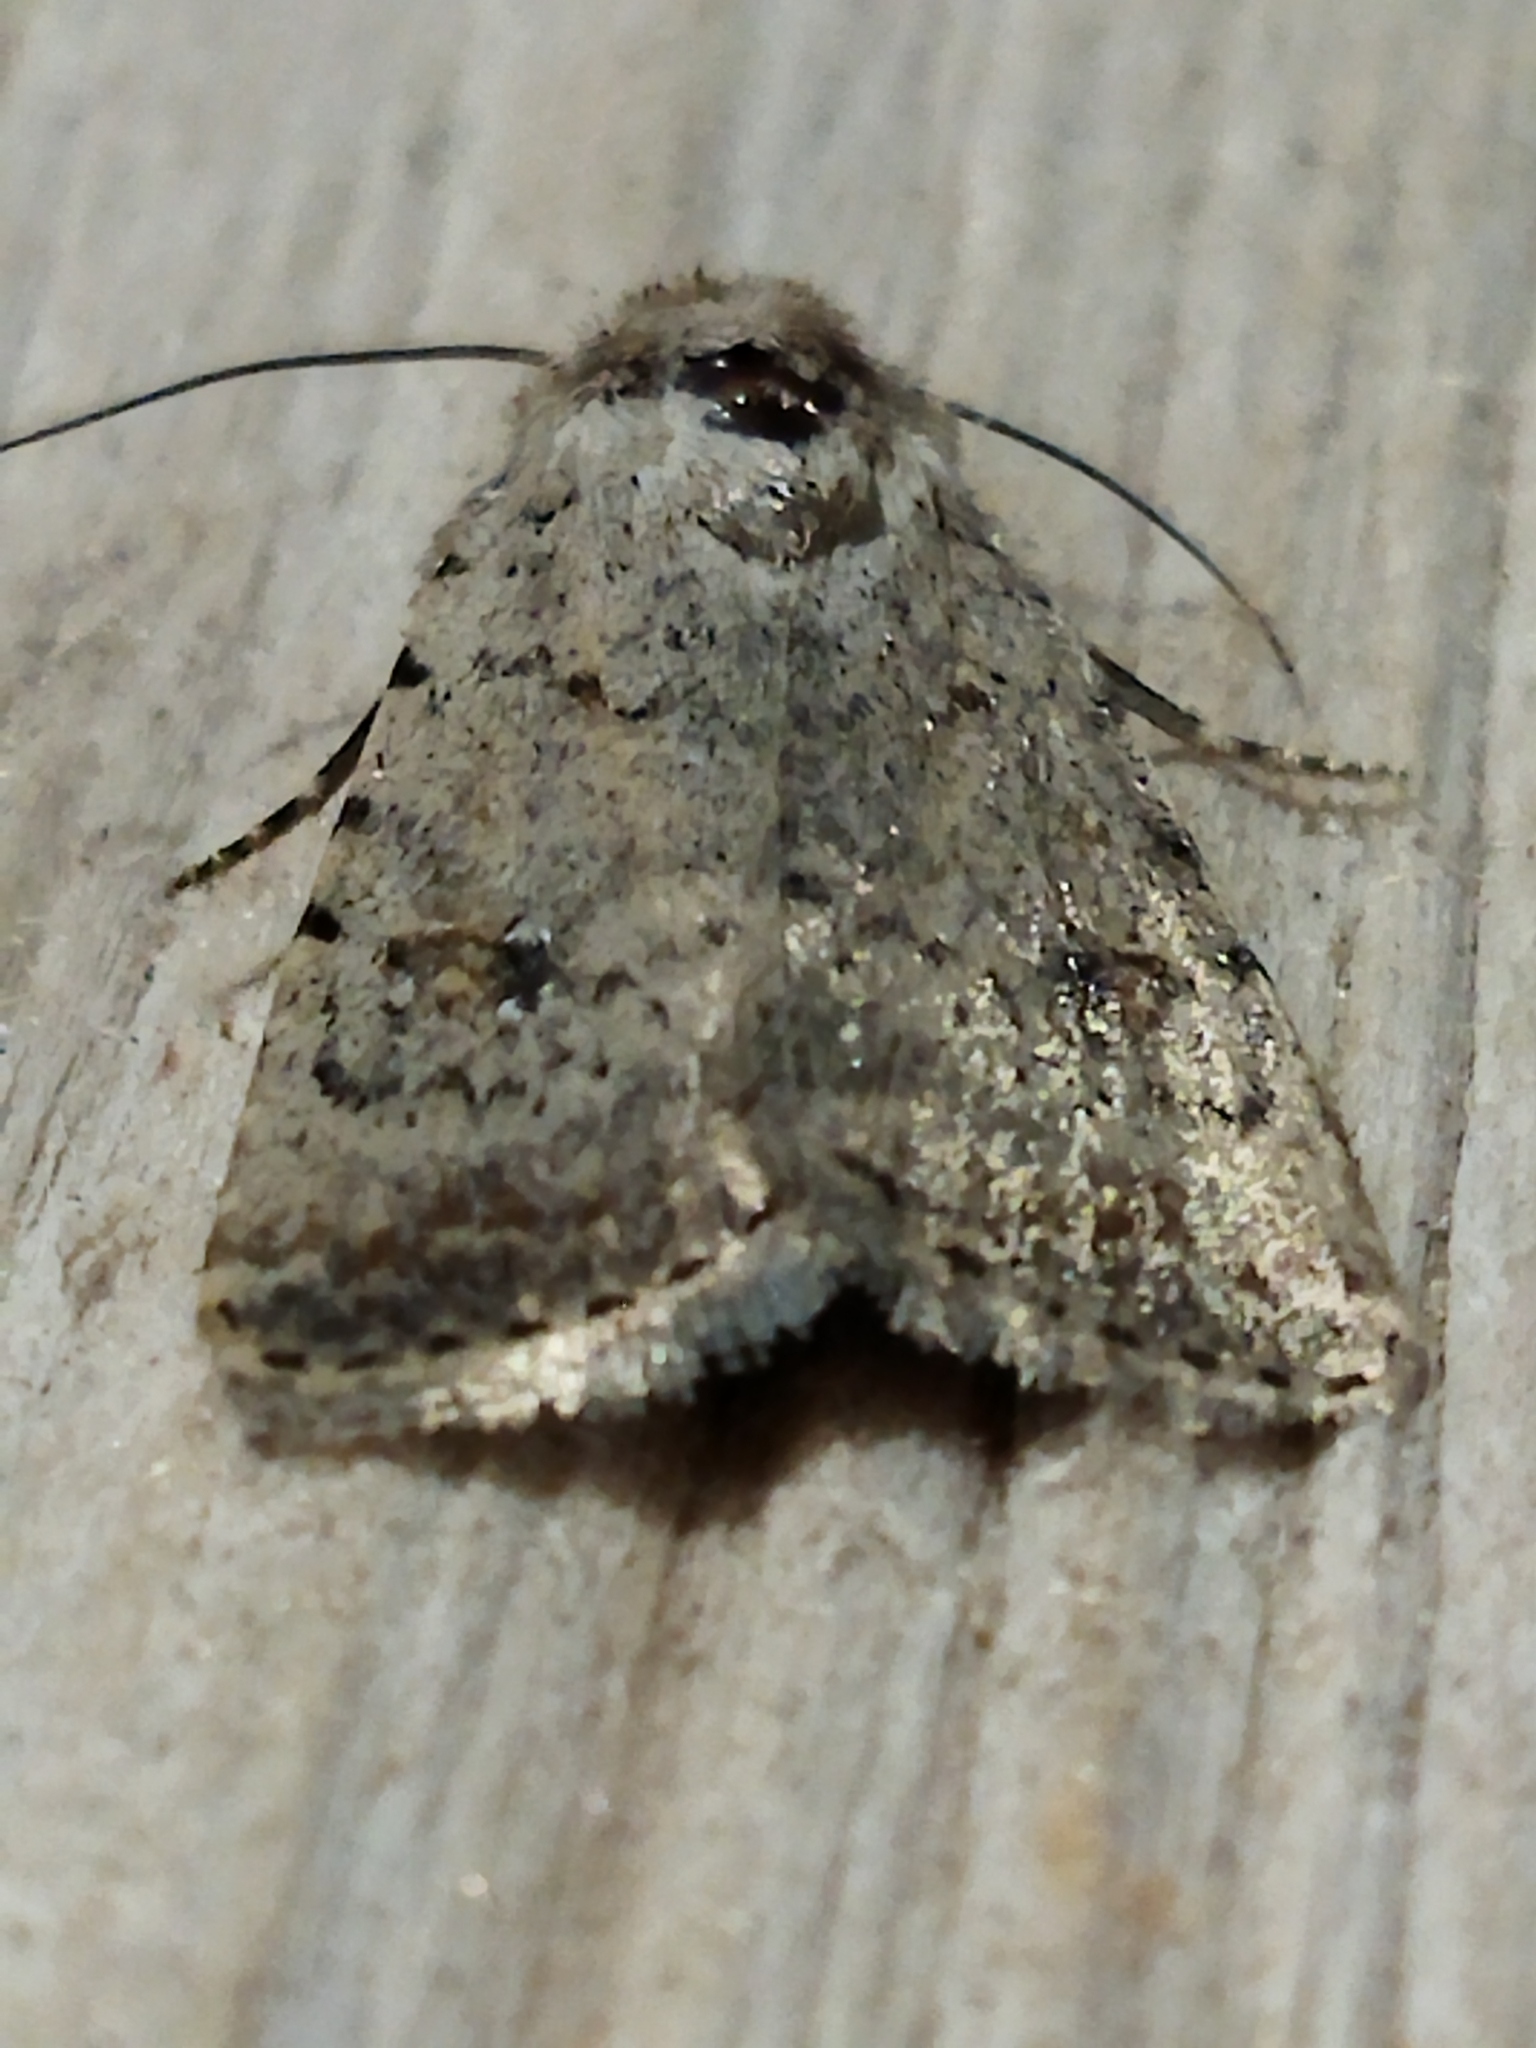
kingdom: Animalia
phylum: Arthropoda
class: Insecta
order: Lepidoptera
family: Noctuidae
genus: Caradrina
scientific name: Caradrina clavipalpis
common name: Pale mottled willow
